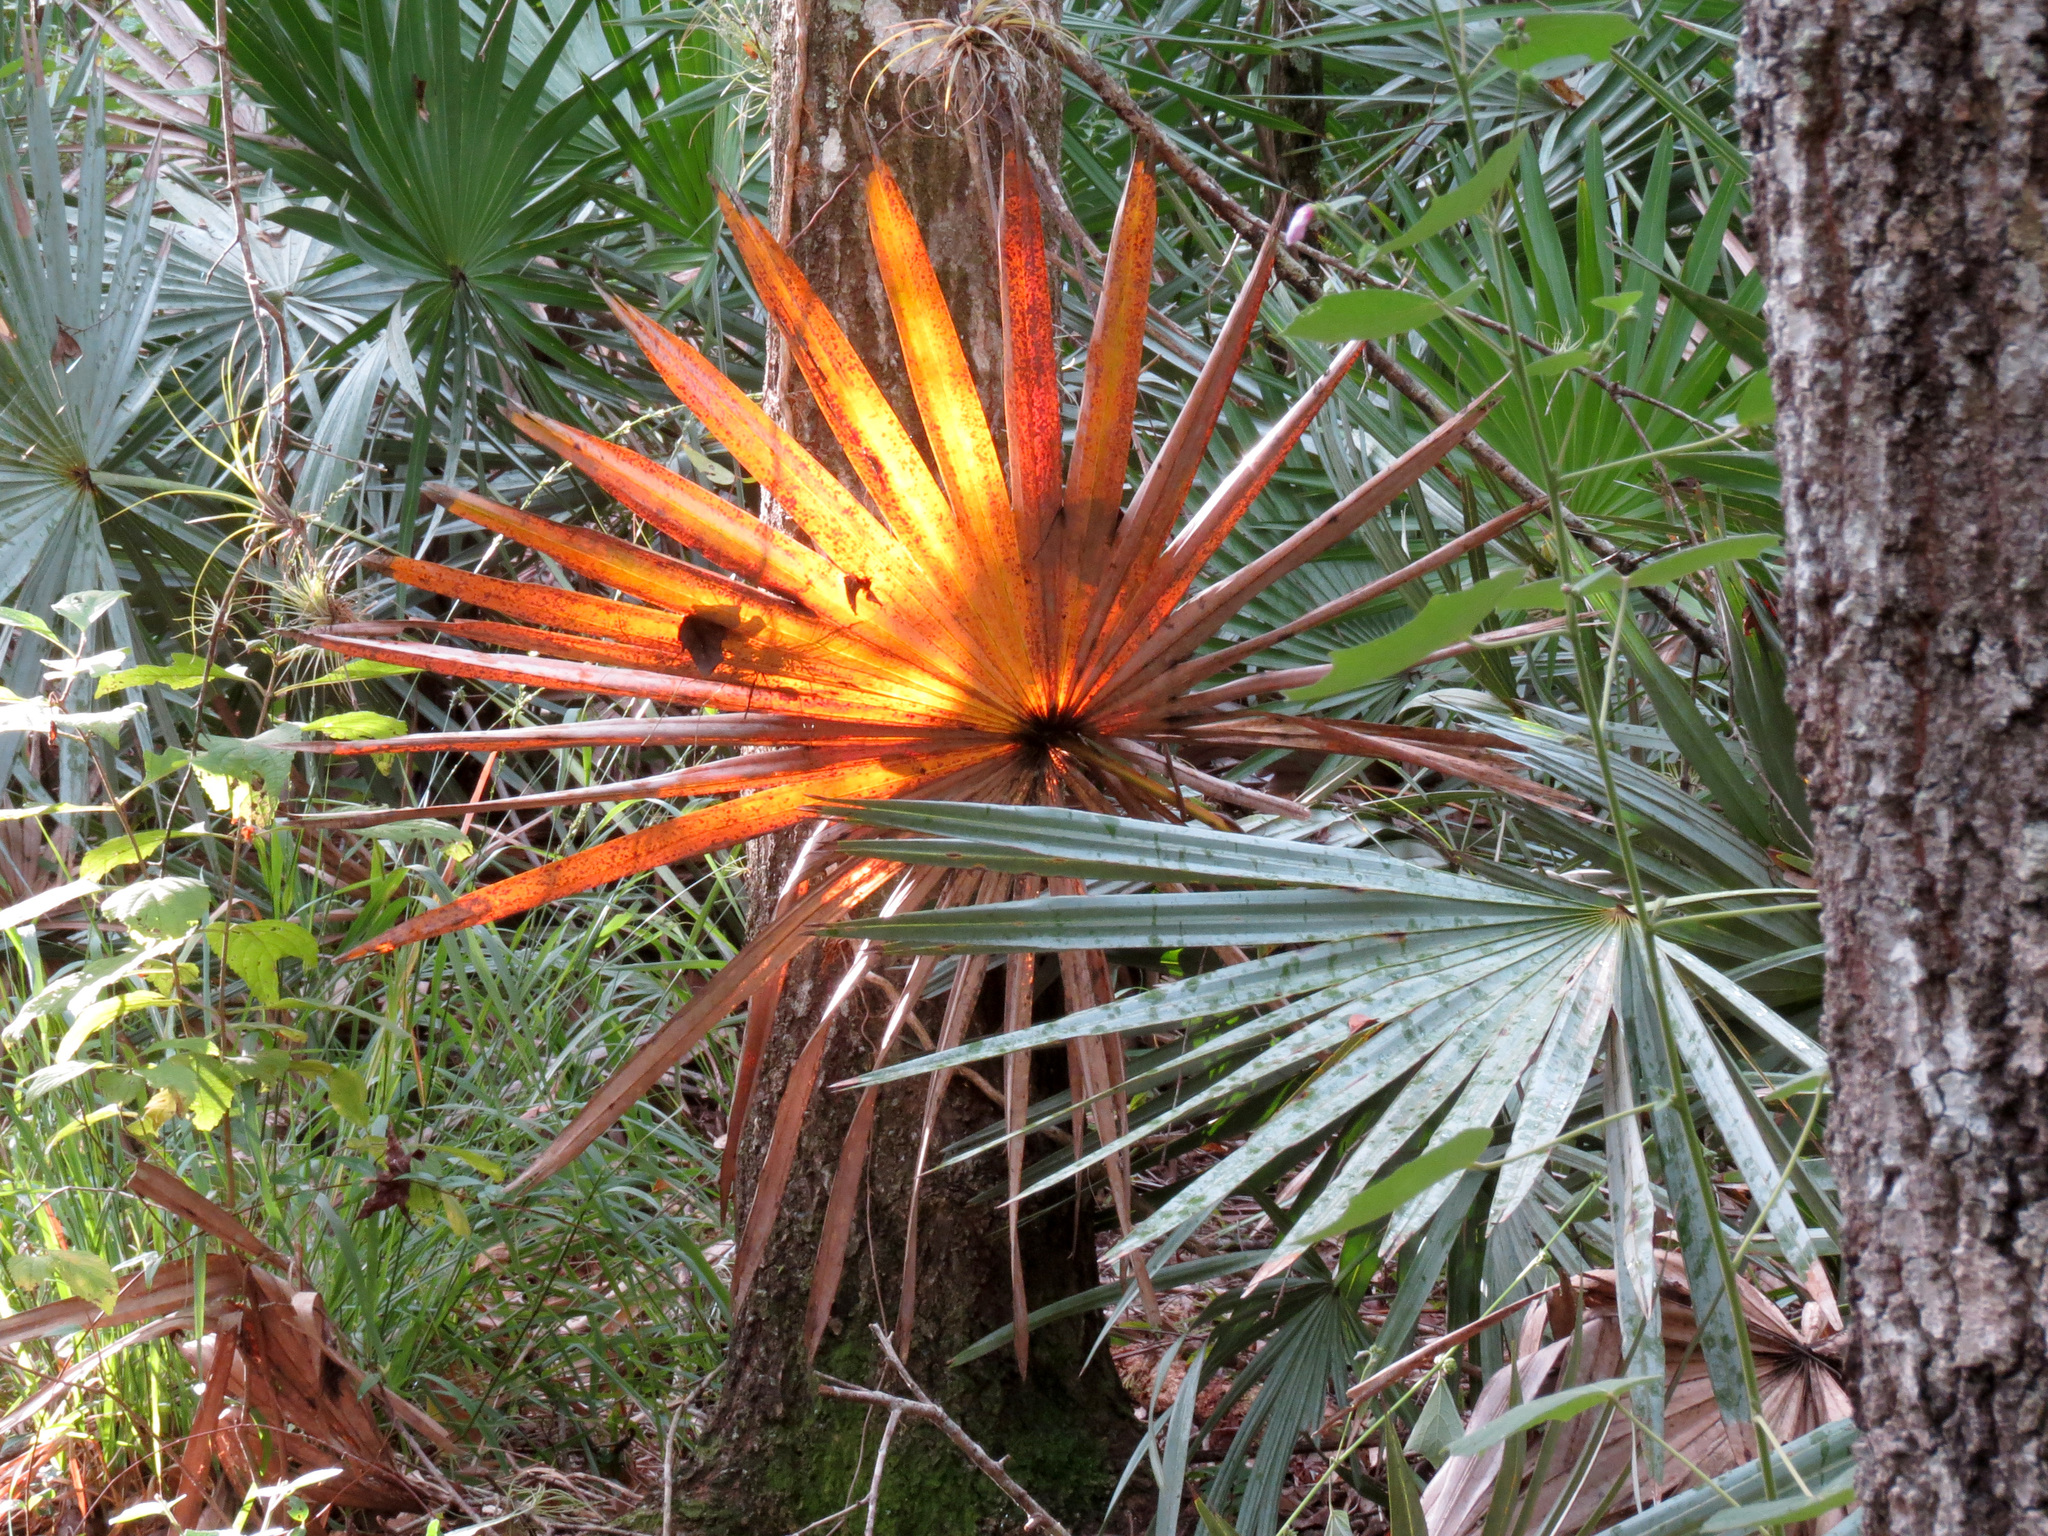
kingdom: Plantae
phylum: Tracheophyta
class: Liliopsida
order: Arecales
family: Arecaceae
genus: Serenoa
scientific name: Serenoa repens
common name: Saw-palmetto
